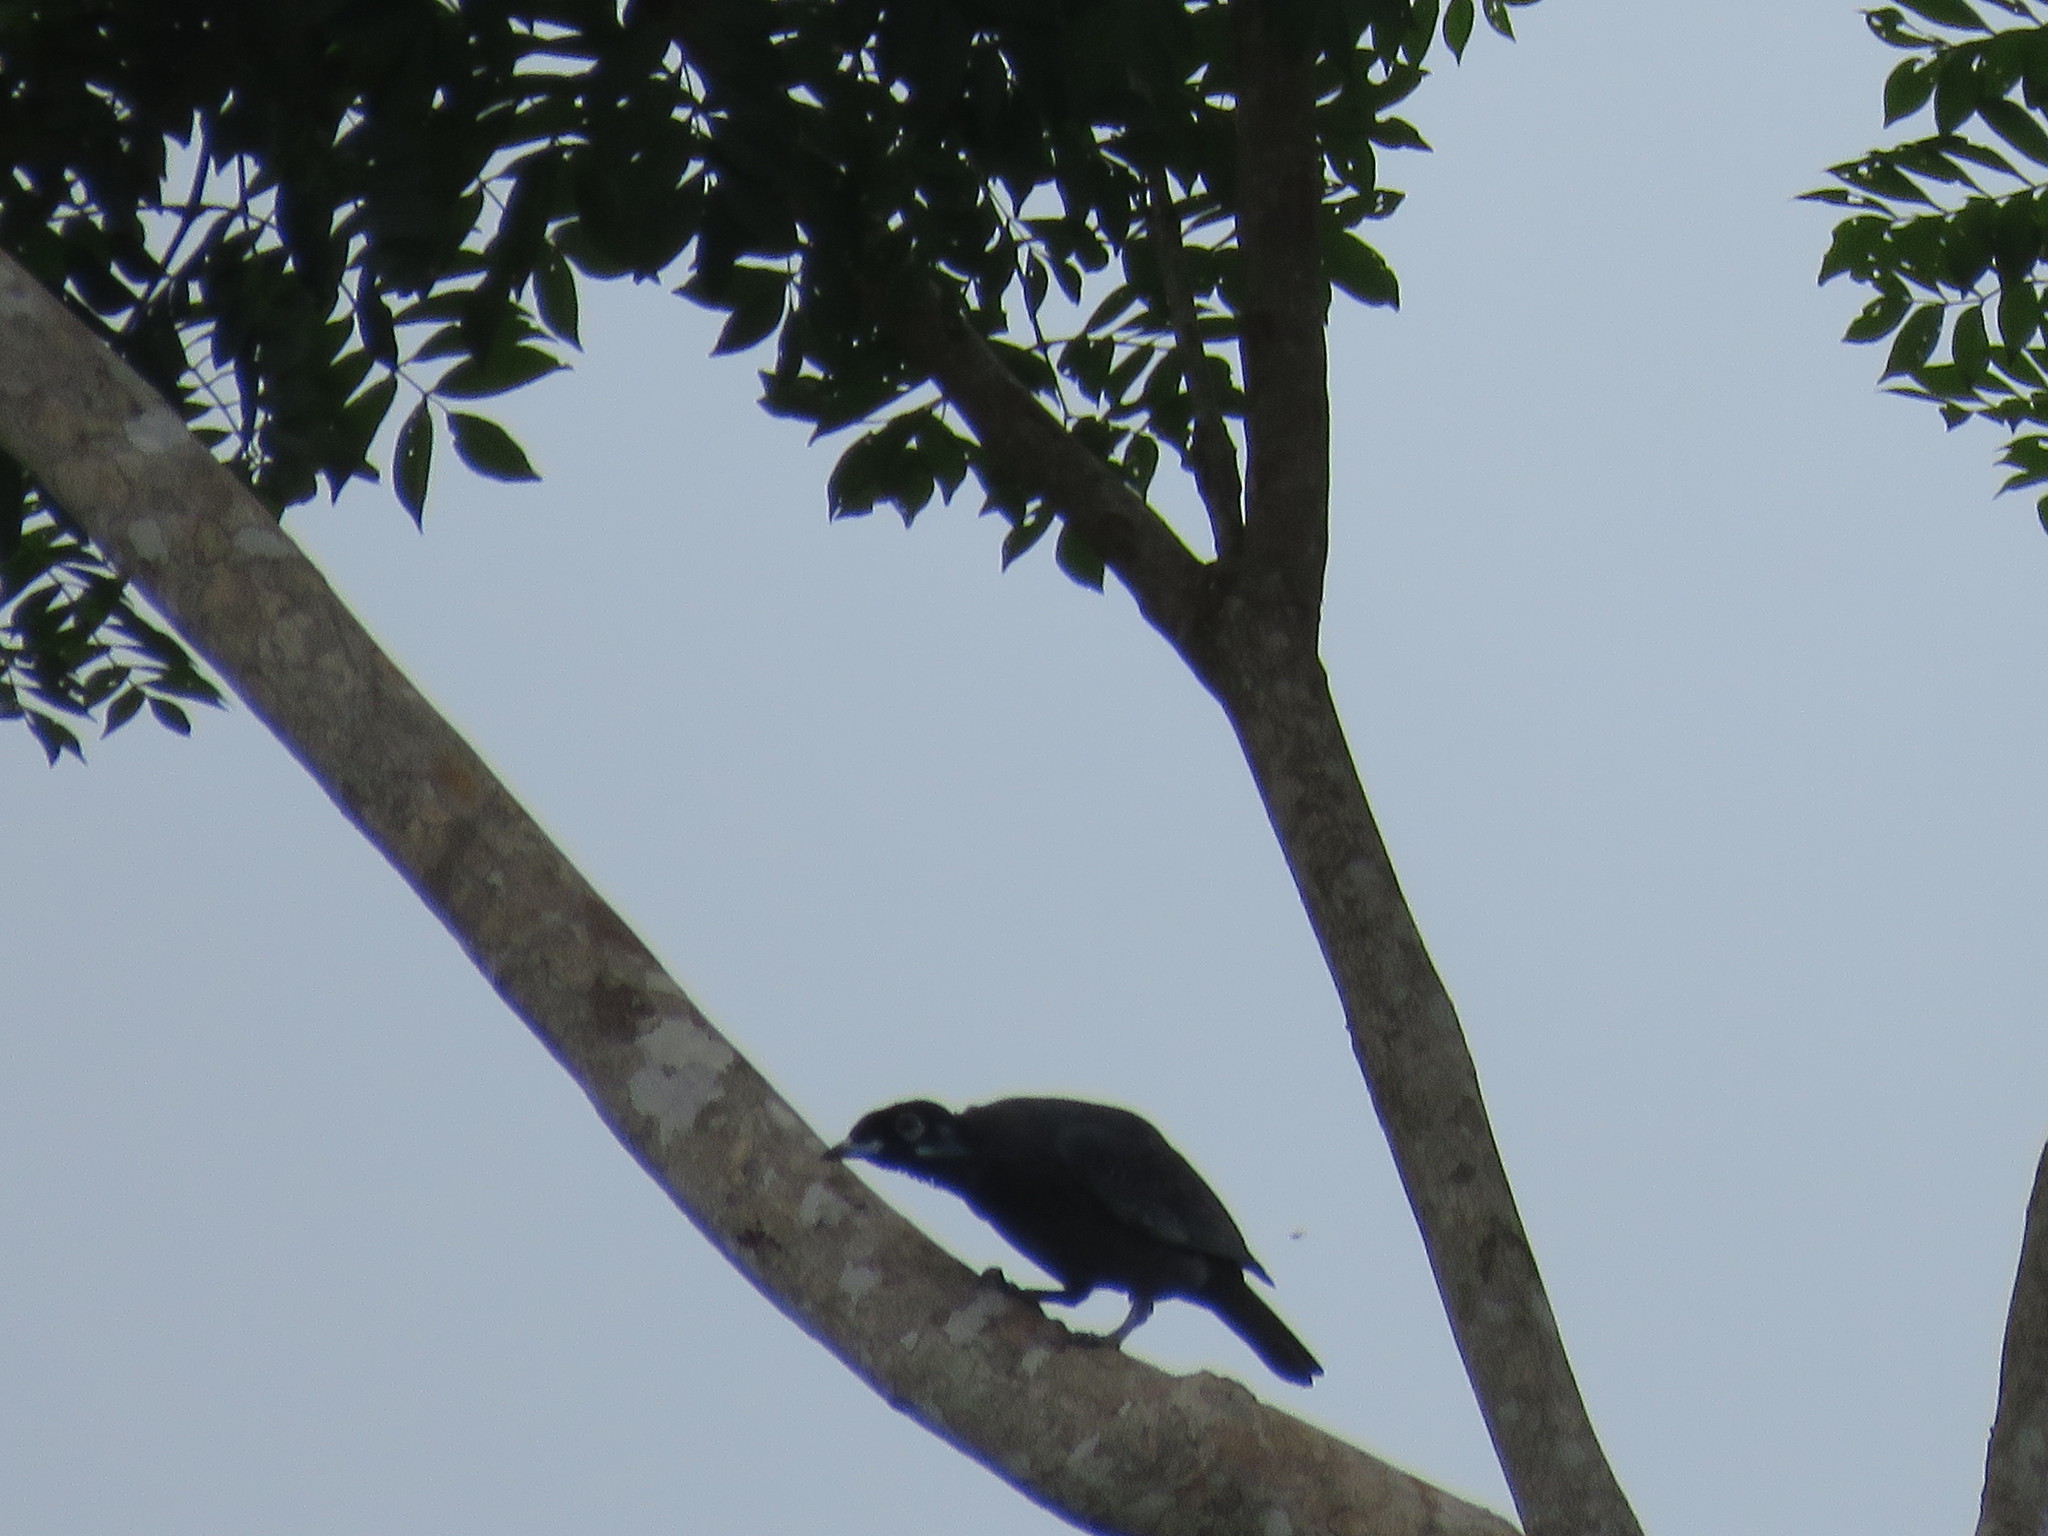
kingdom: Animalia
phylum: Chordata
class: Aves
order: Passeriformes
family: Cotingidae
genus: Gymnoderus
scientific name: Gymnoderus foetidus
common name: Bare-necked fruitcrow
